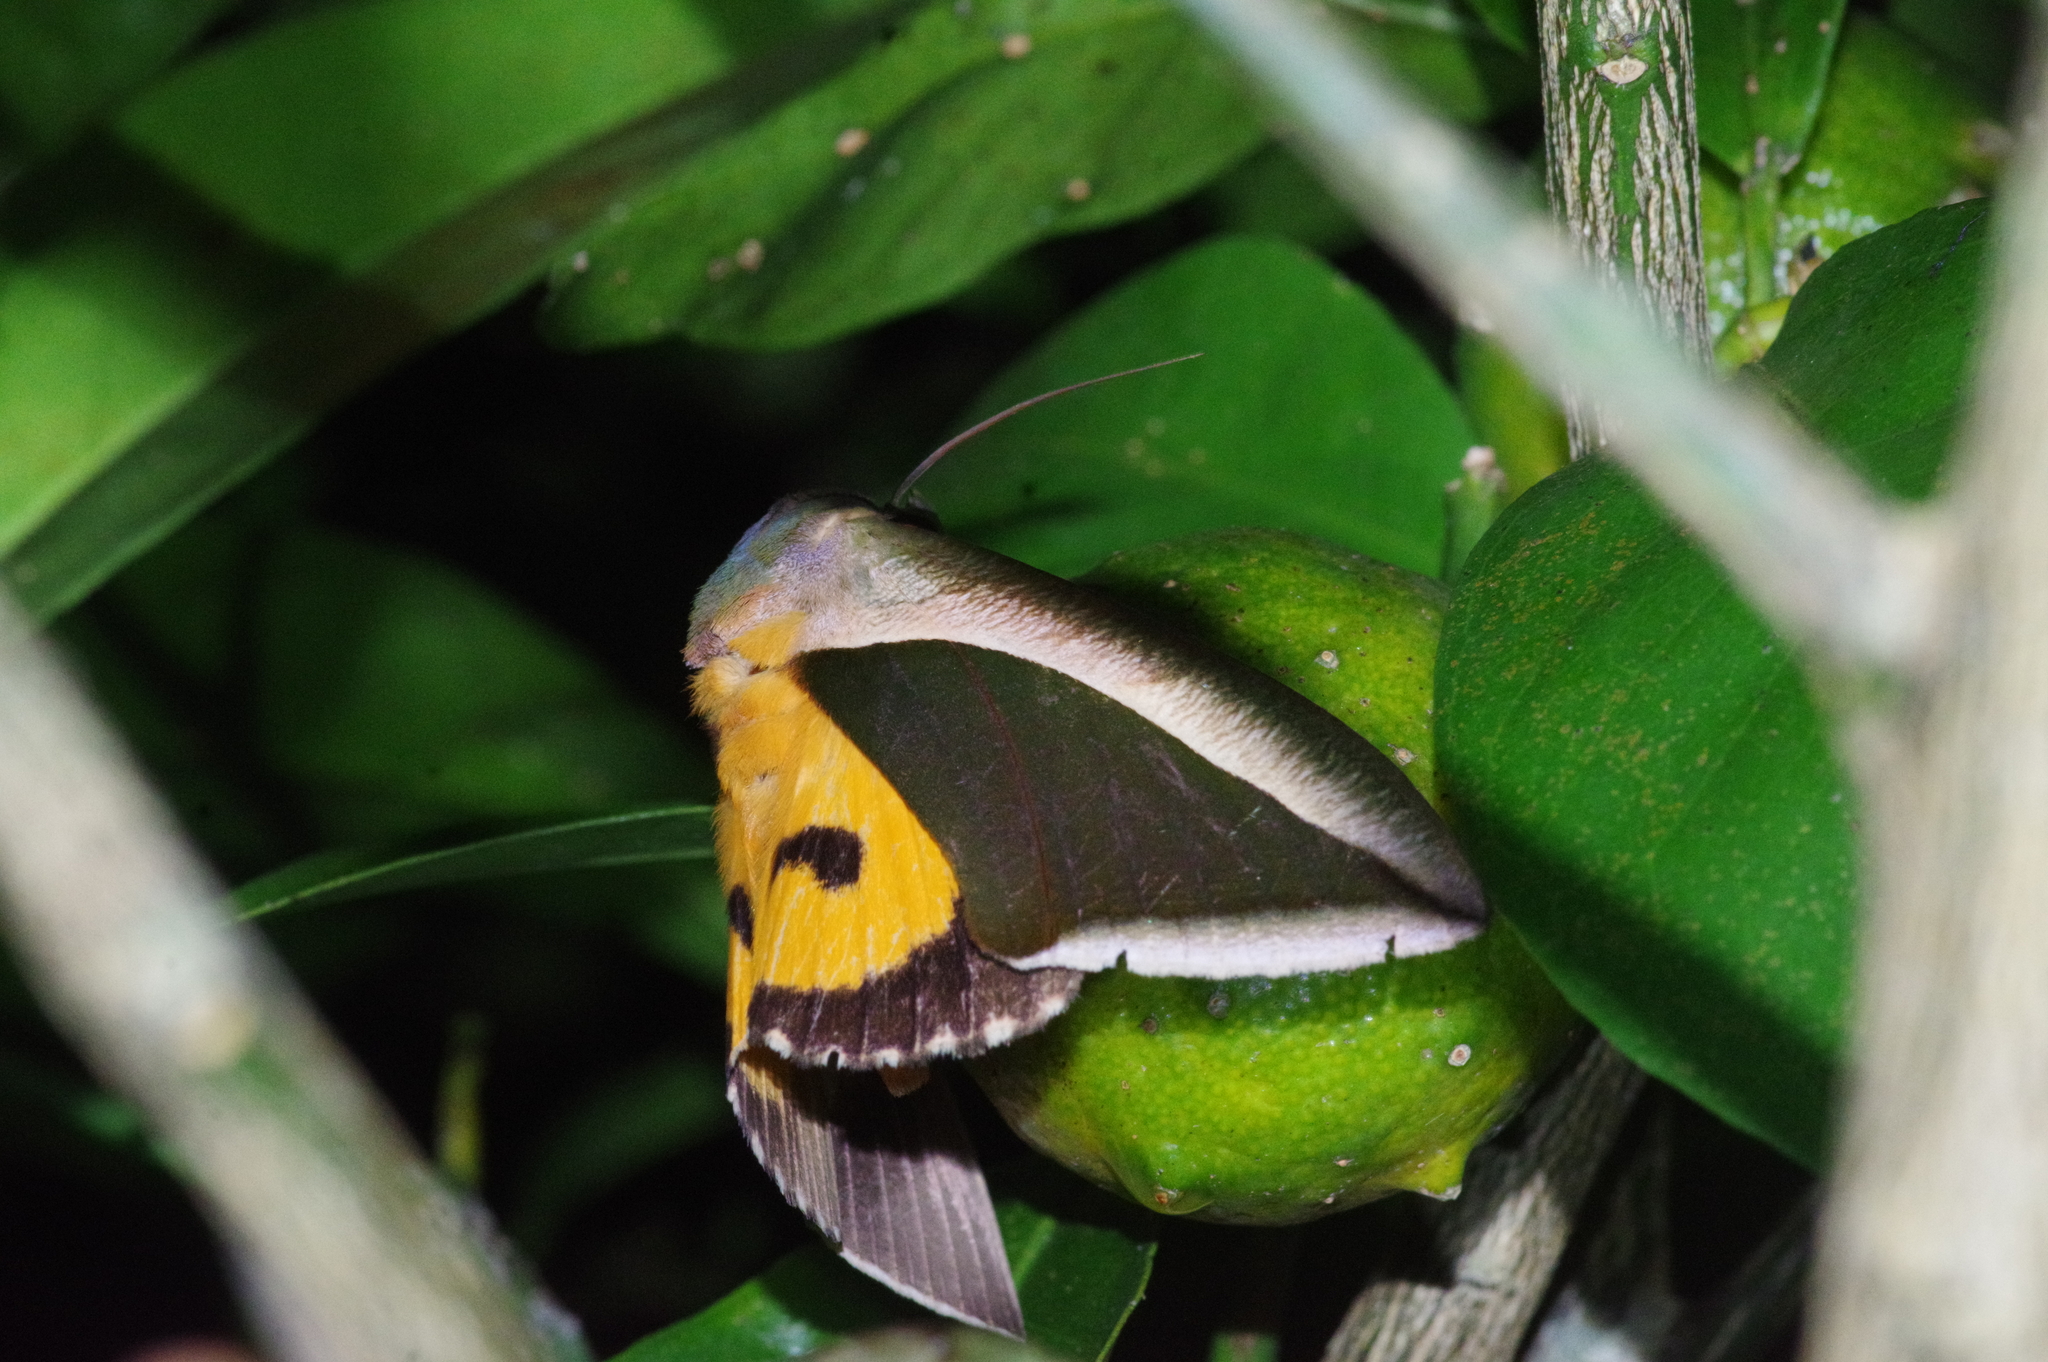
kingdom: Animalia
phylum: Arthropoda
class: Insecta
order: Lepidoptera
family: Erebidae
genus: Eudocima
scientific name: Eudocima salaminia
